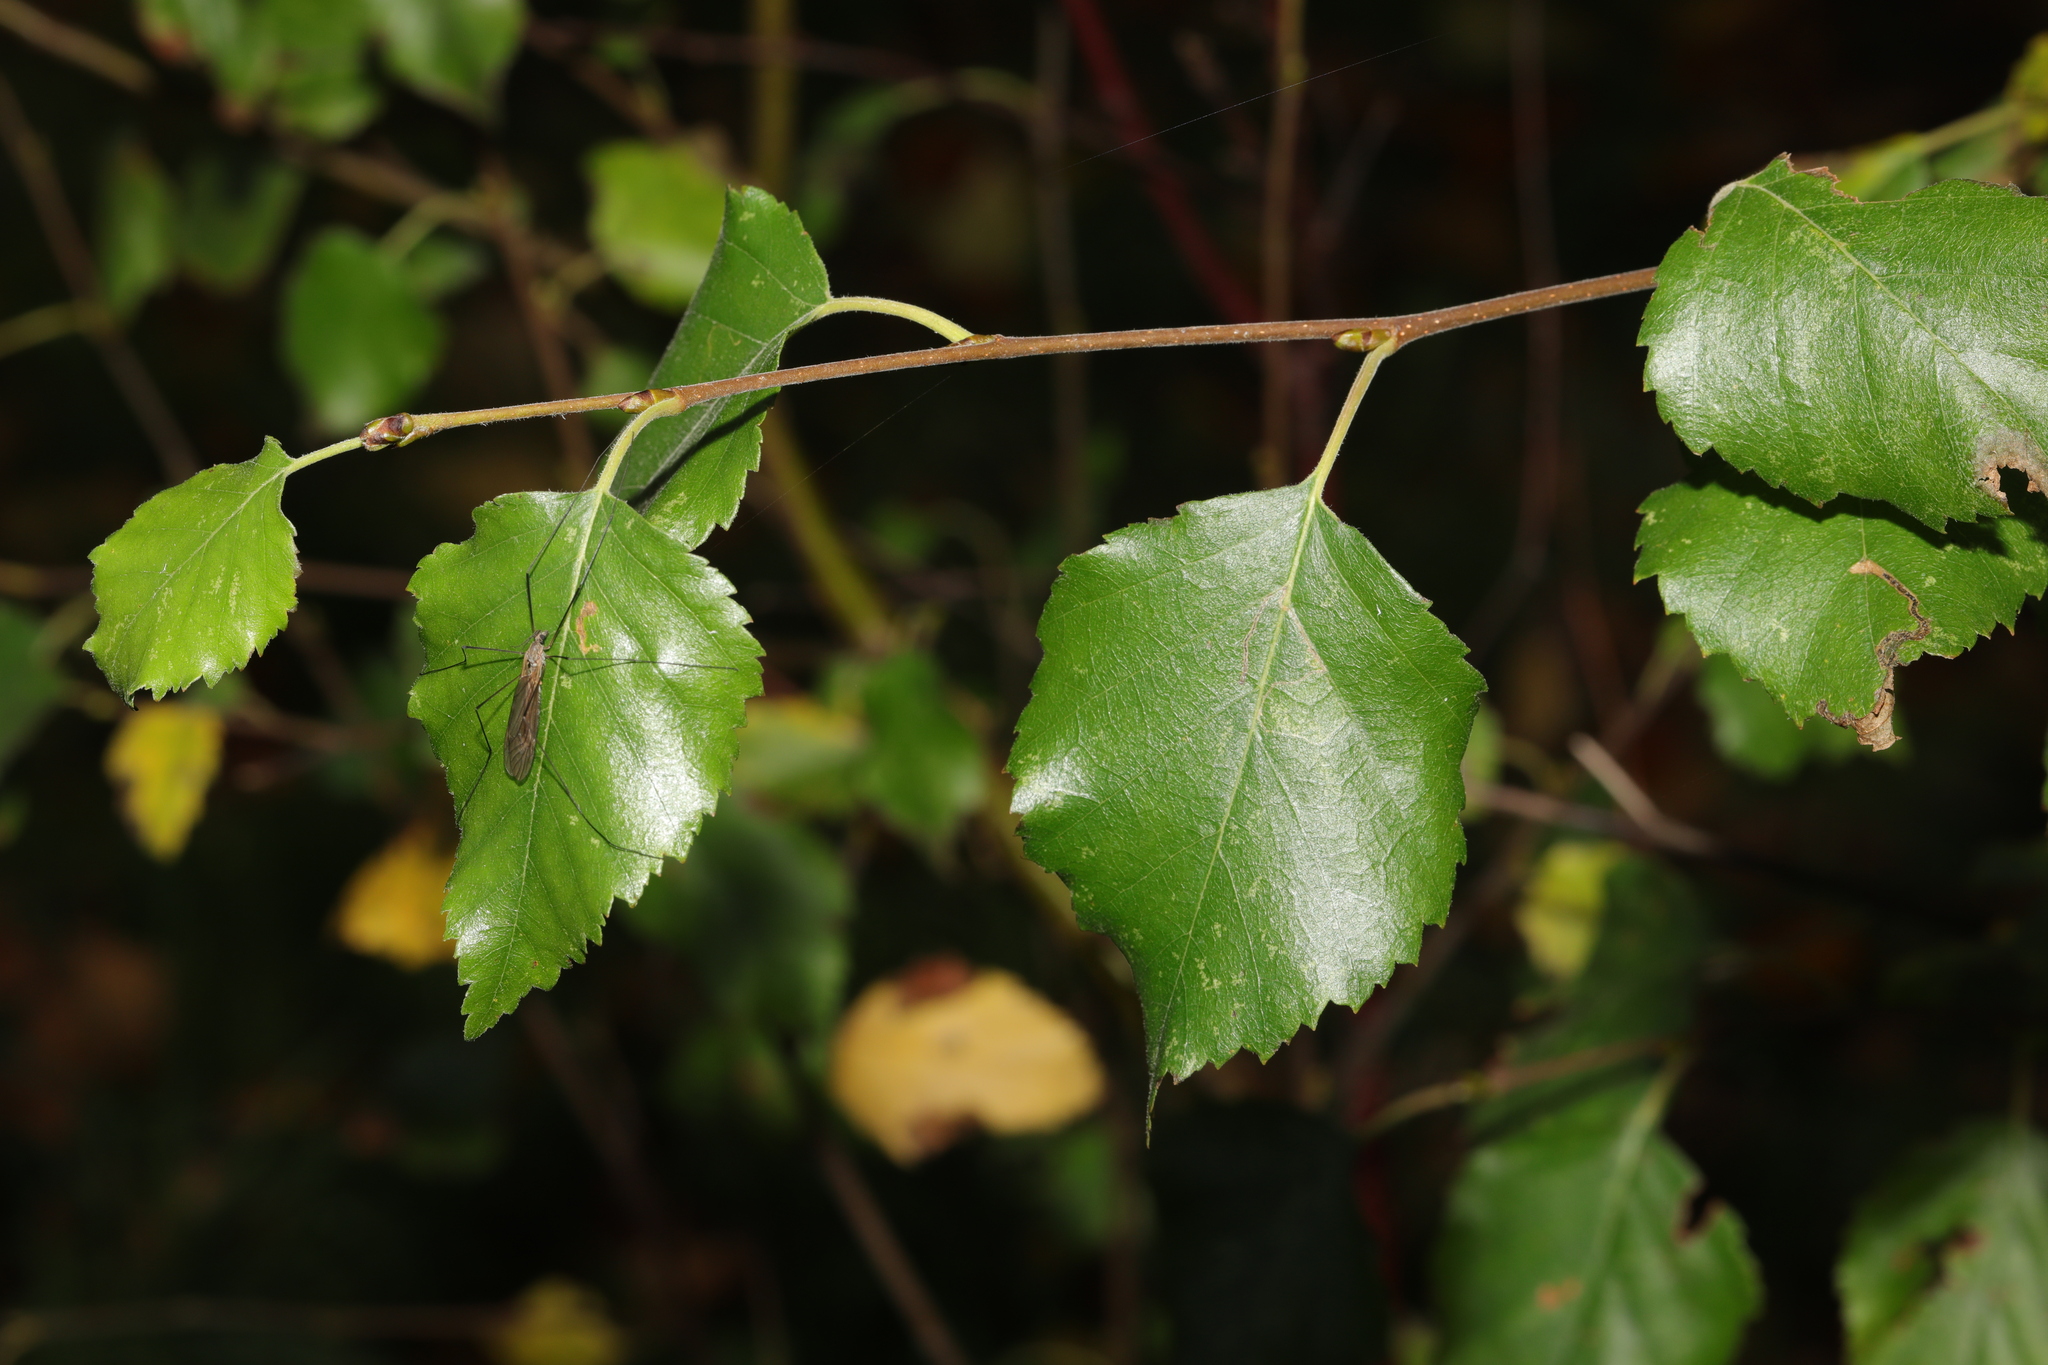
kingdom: Plantae
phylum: Tracheophyta
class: Magnoliopsida
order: Fagales
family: Betulaceae
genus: Betula
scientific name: Betula pubescens
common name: Downy birch
